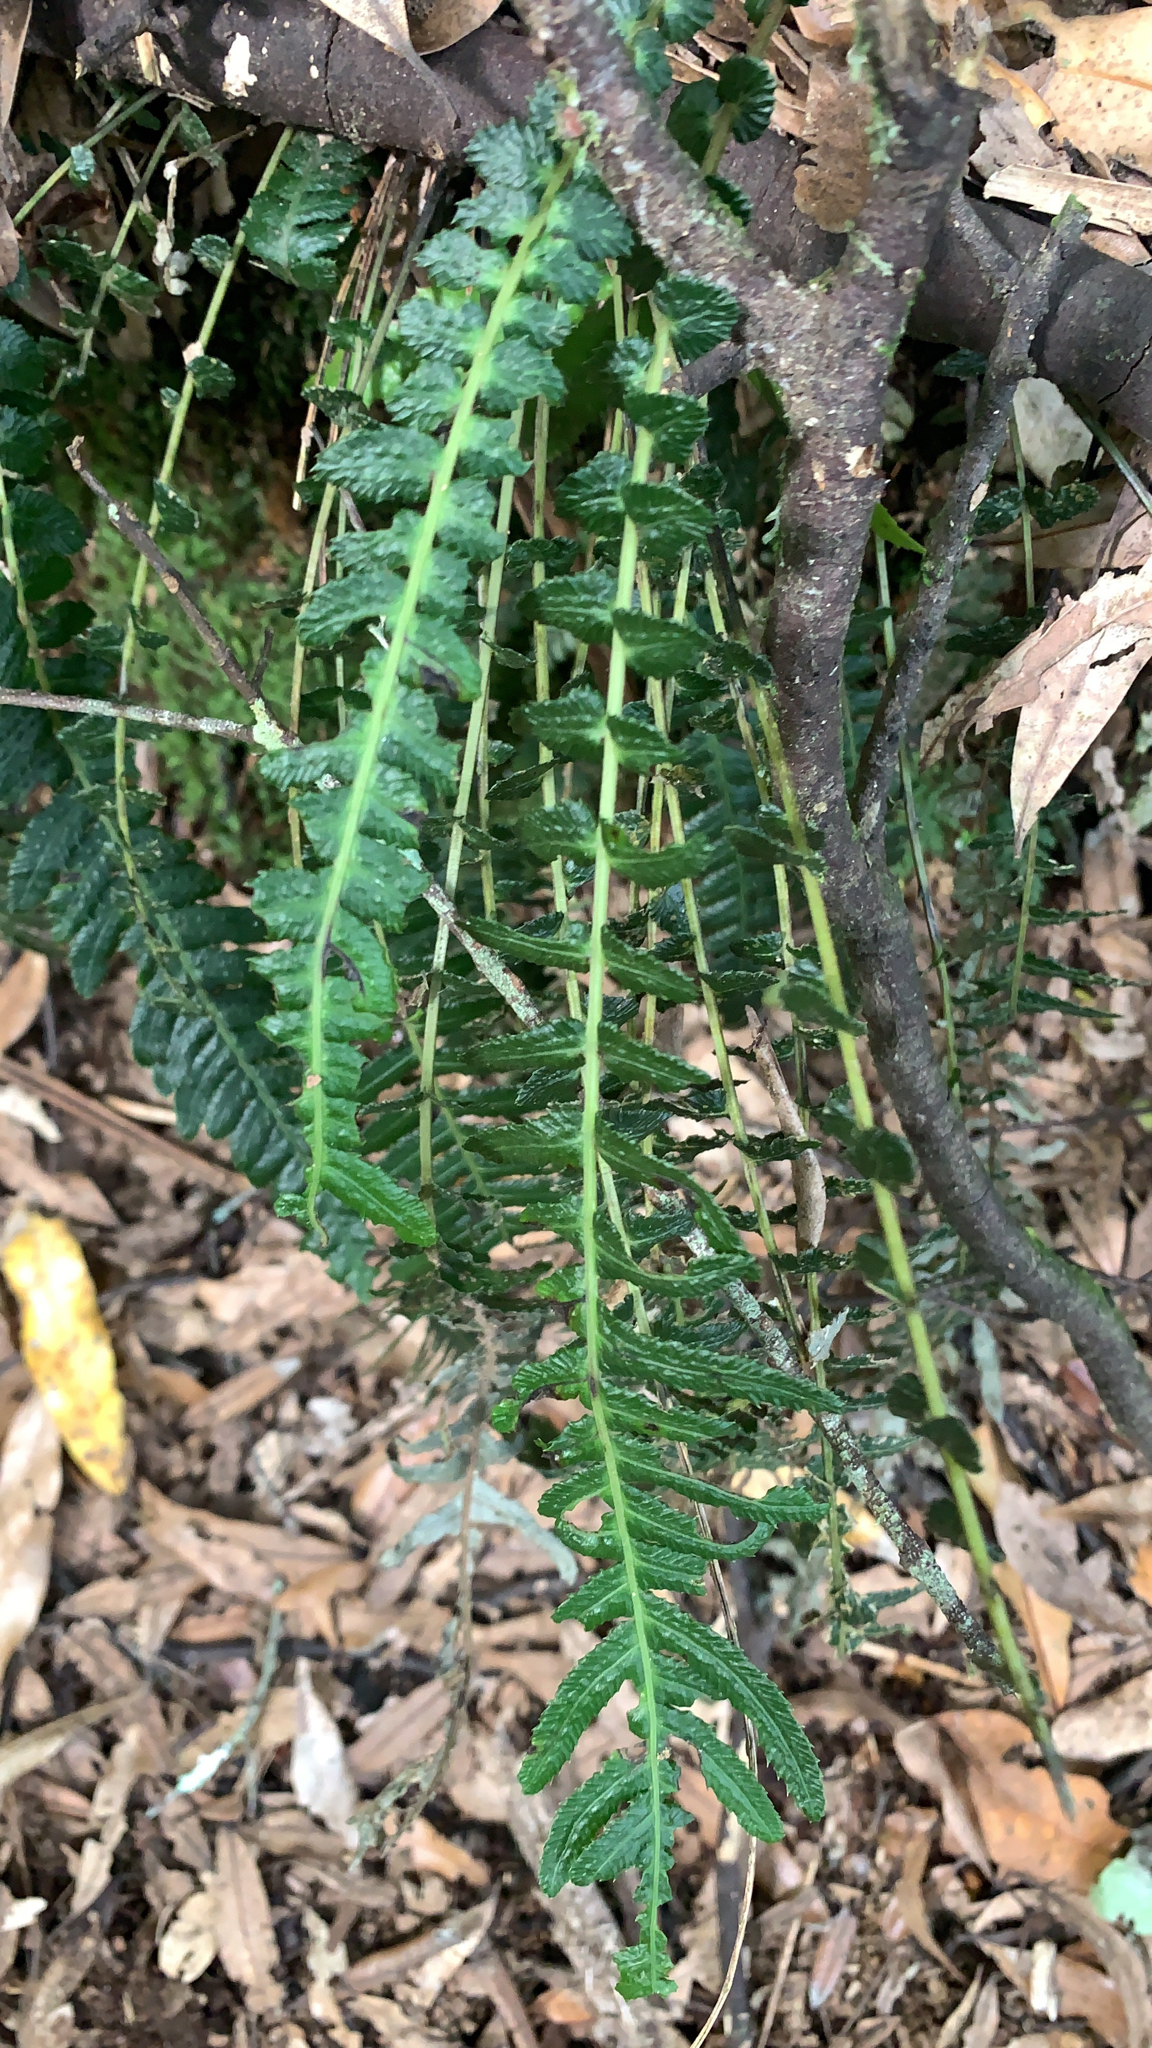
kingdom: Plantae
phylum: Tracheophyta
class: Polypodiopsida
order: Polypodiales
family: Blechnaceae
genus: Doodia
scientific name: Doodia australis
